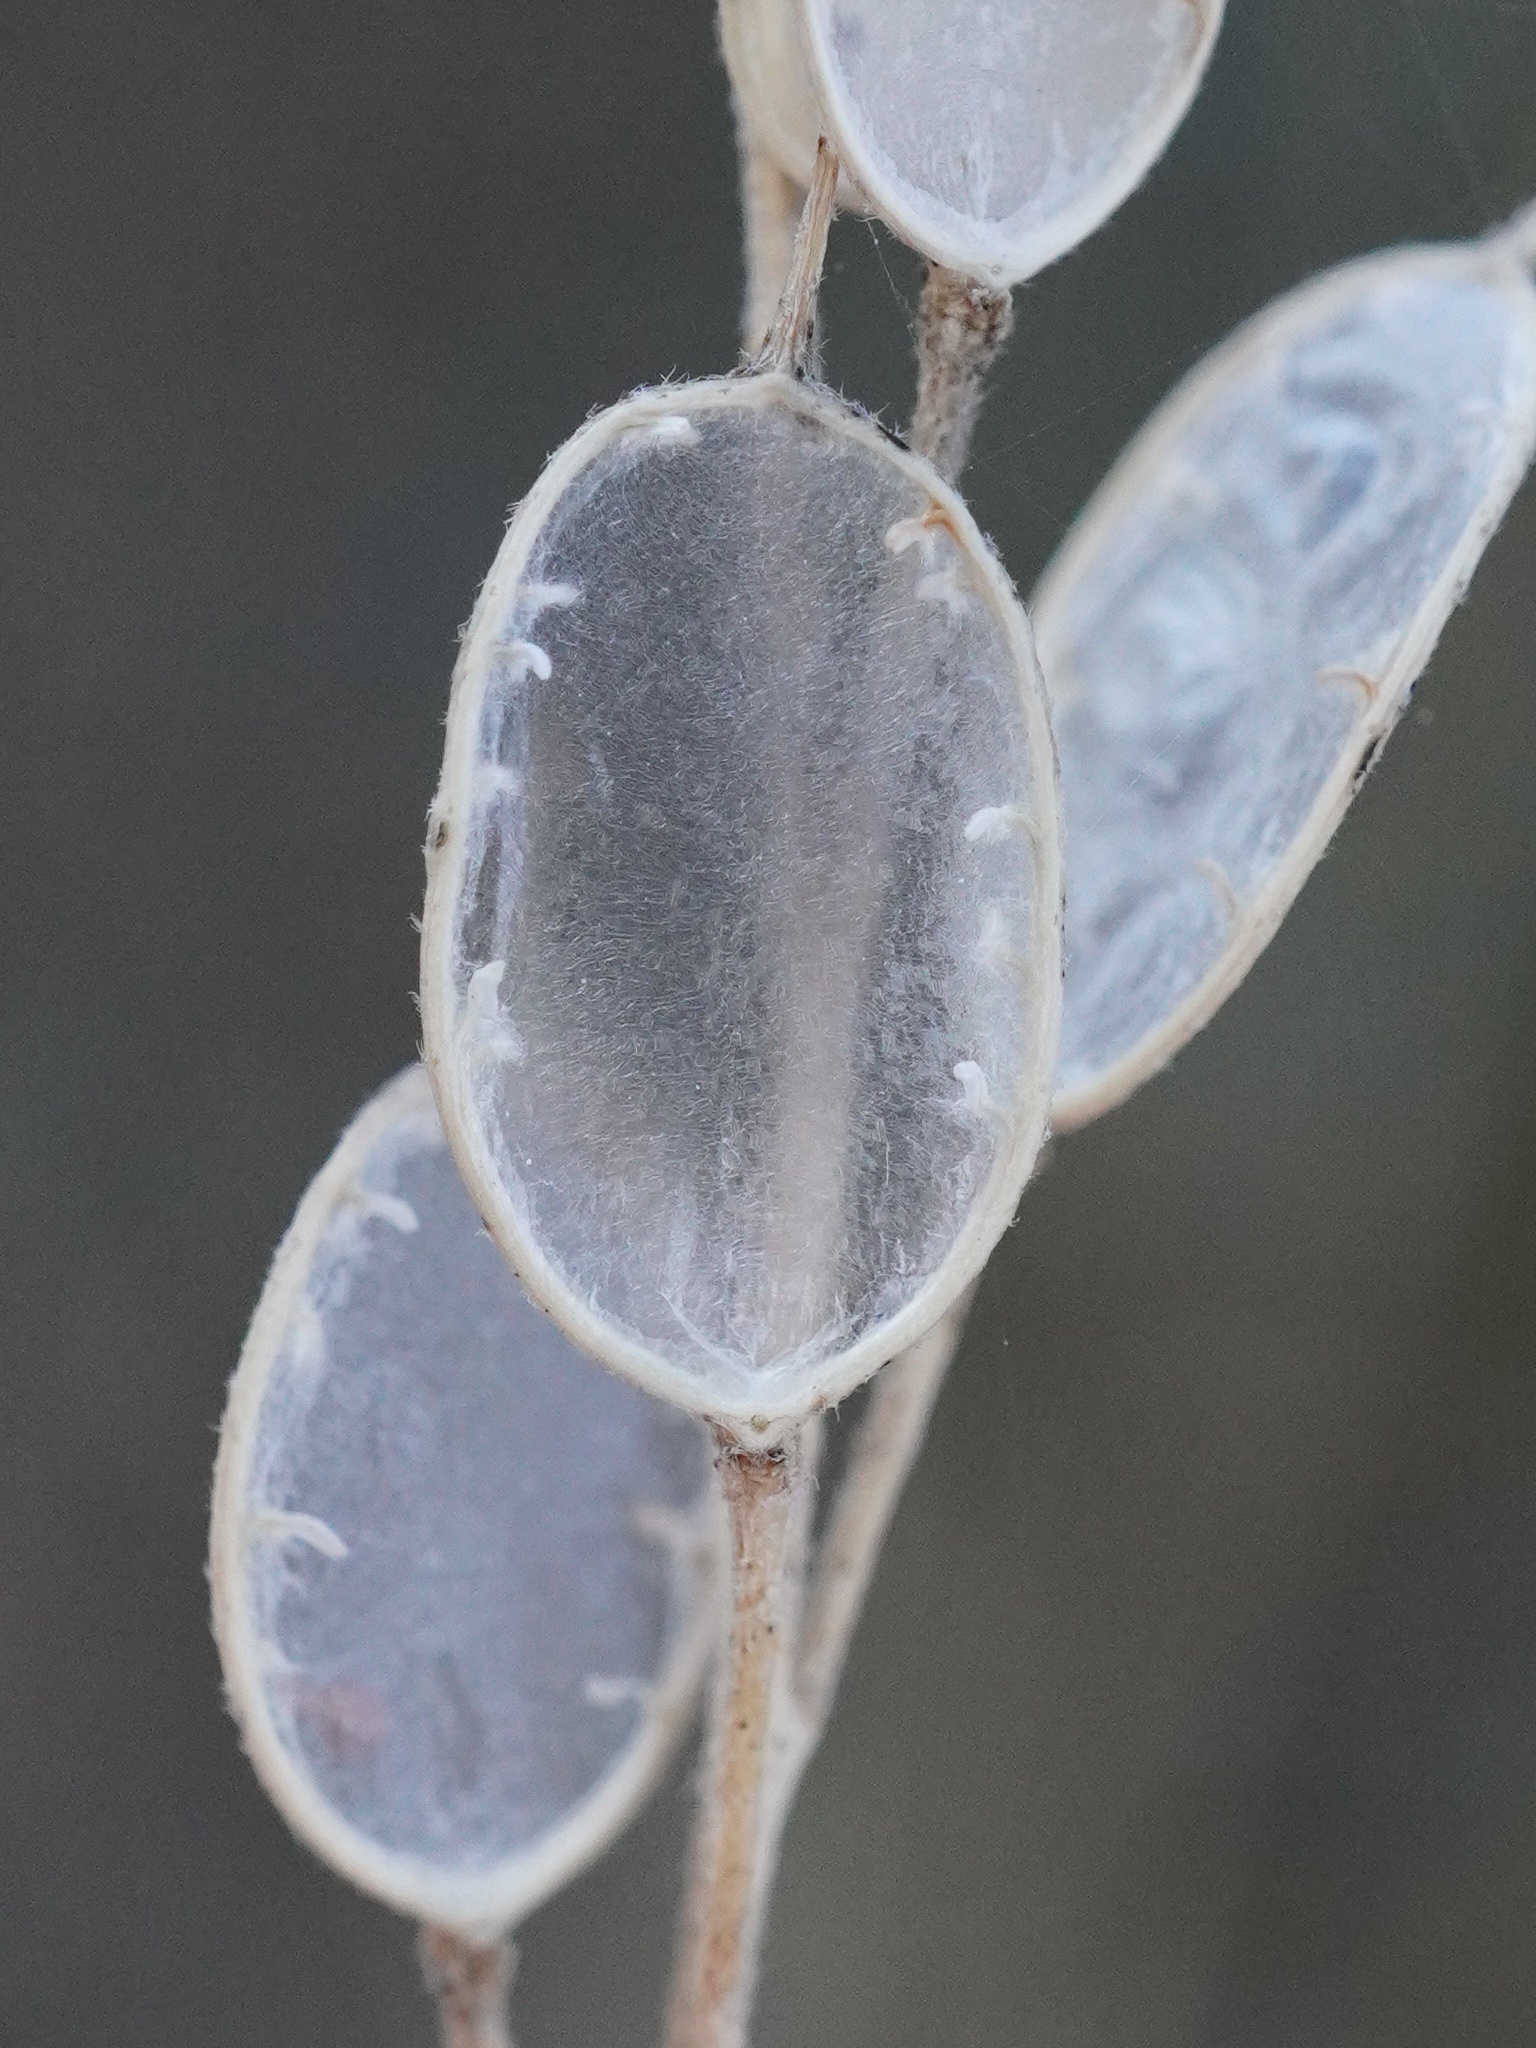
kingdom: Plantae
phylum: Tracheophyta
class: Magnoliopsida
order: Brassicales
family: Brassicaceae
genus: Berteroa
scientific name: Berteroa incana
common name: Hoary alison
